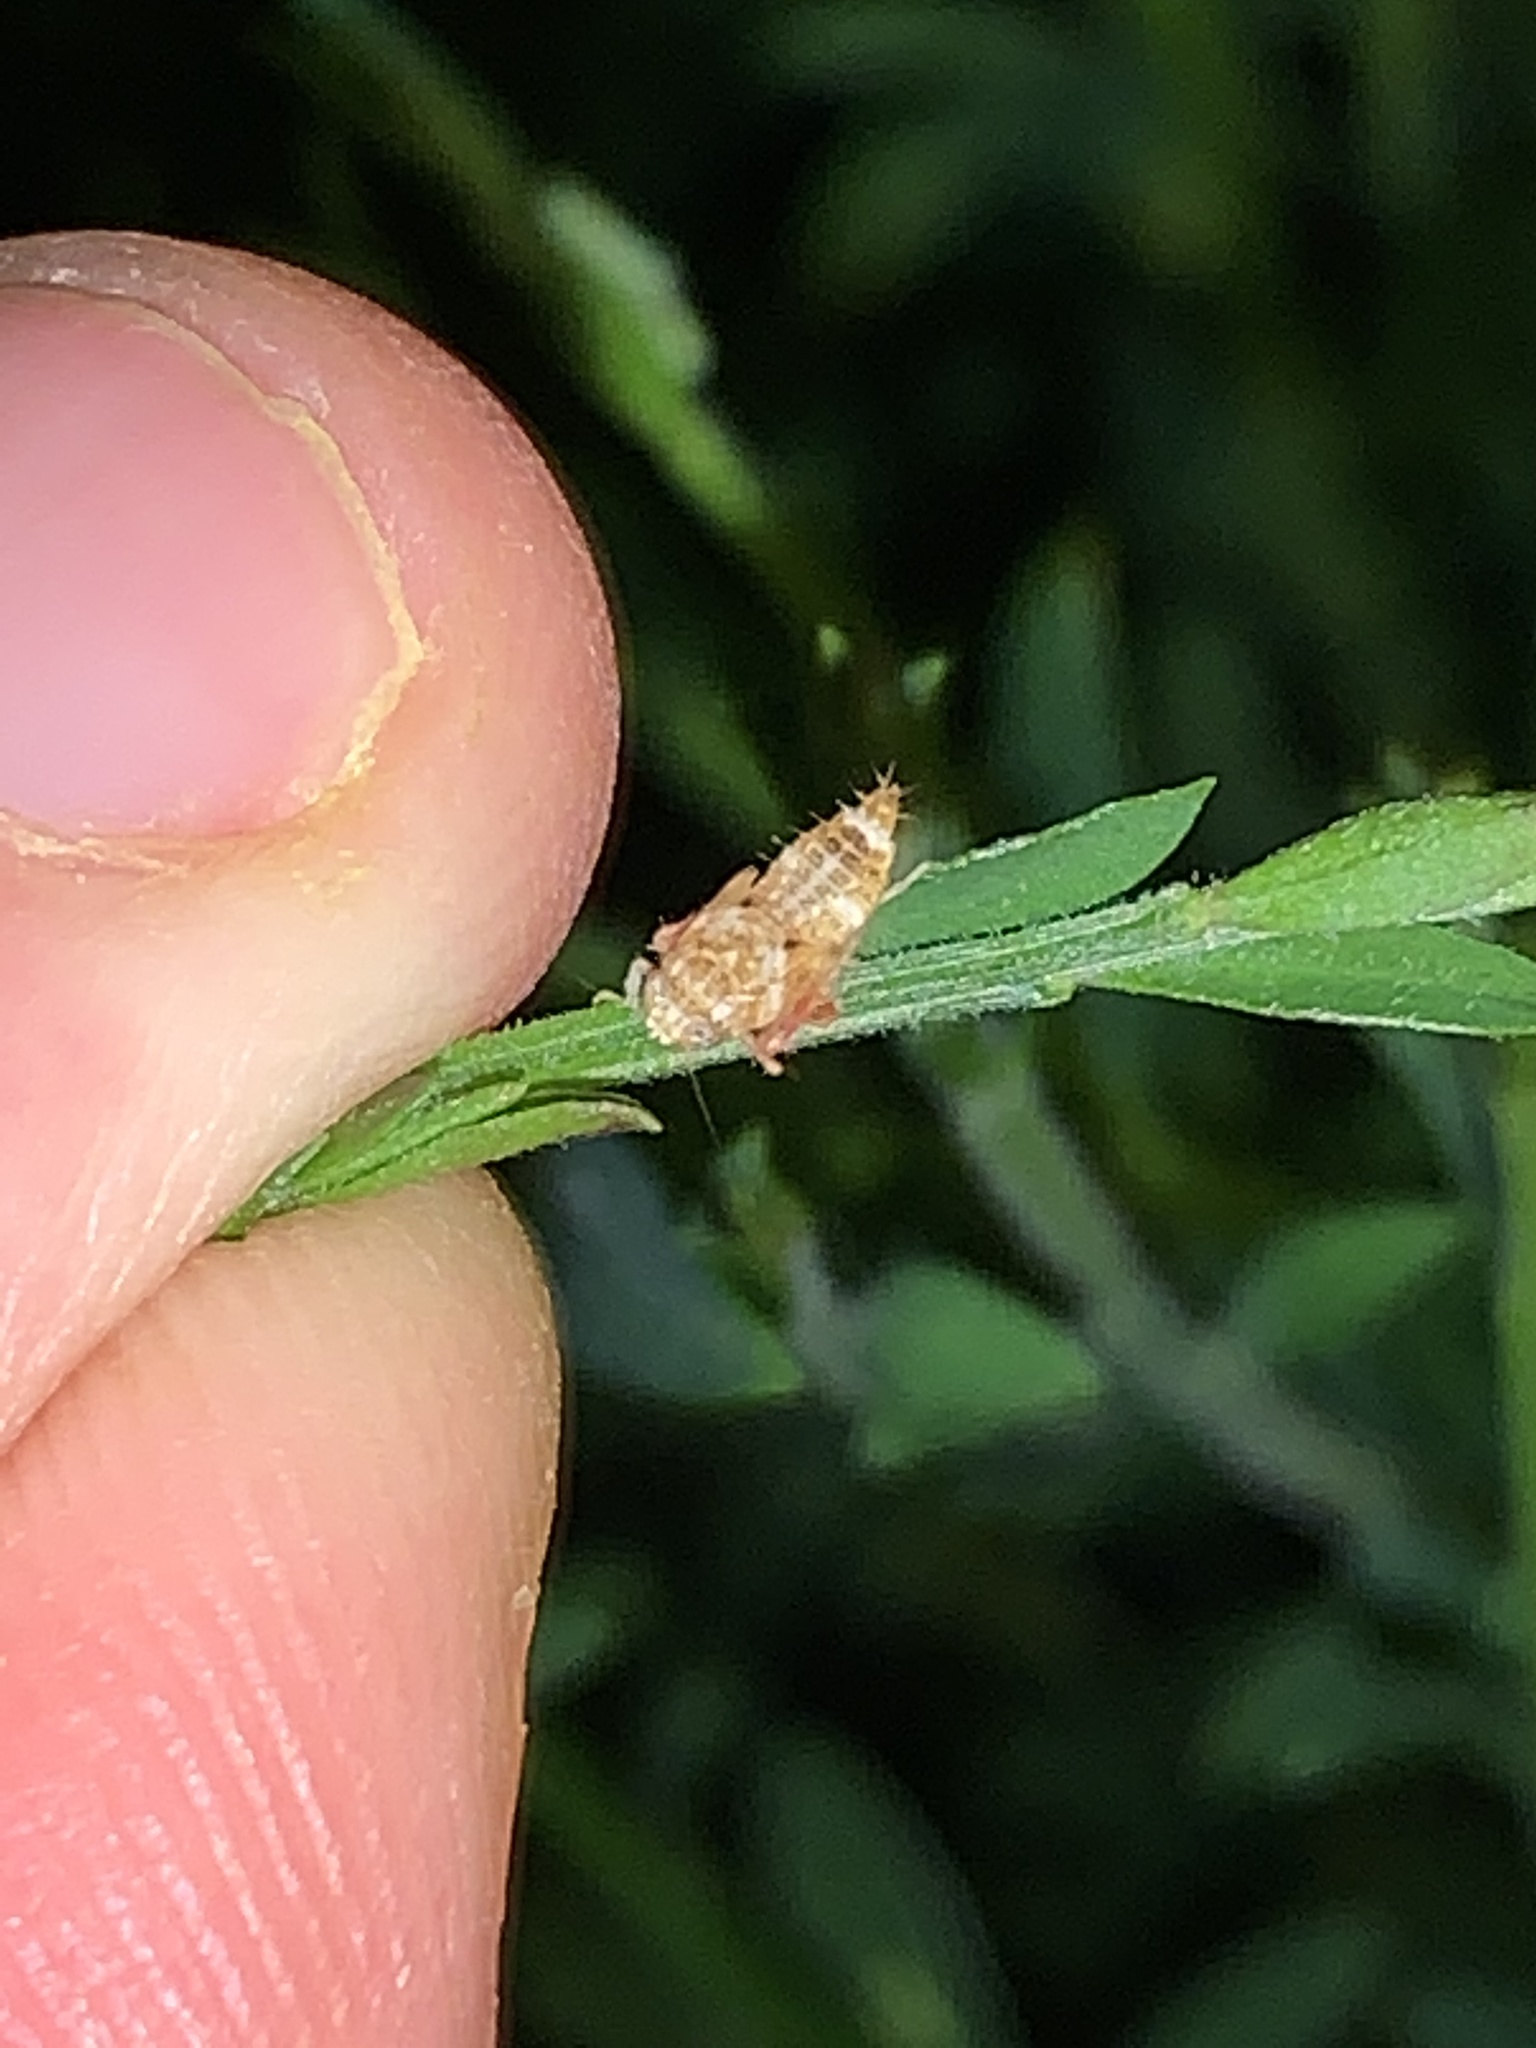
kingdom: Animalia
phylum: Arthropoda
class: Insecta
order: Hemiptera
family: Cicadellidae
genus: Orientus
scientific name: Orientus ishidae
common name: Japanese leafhopper
